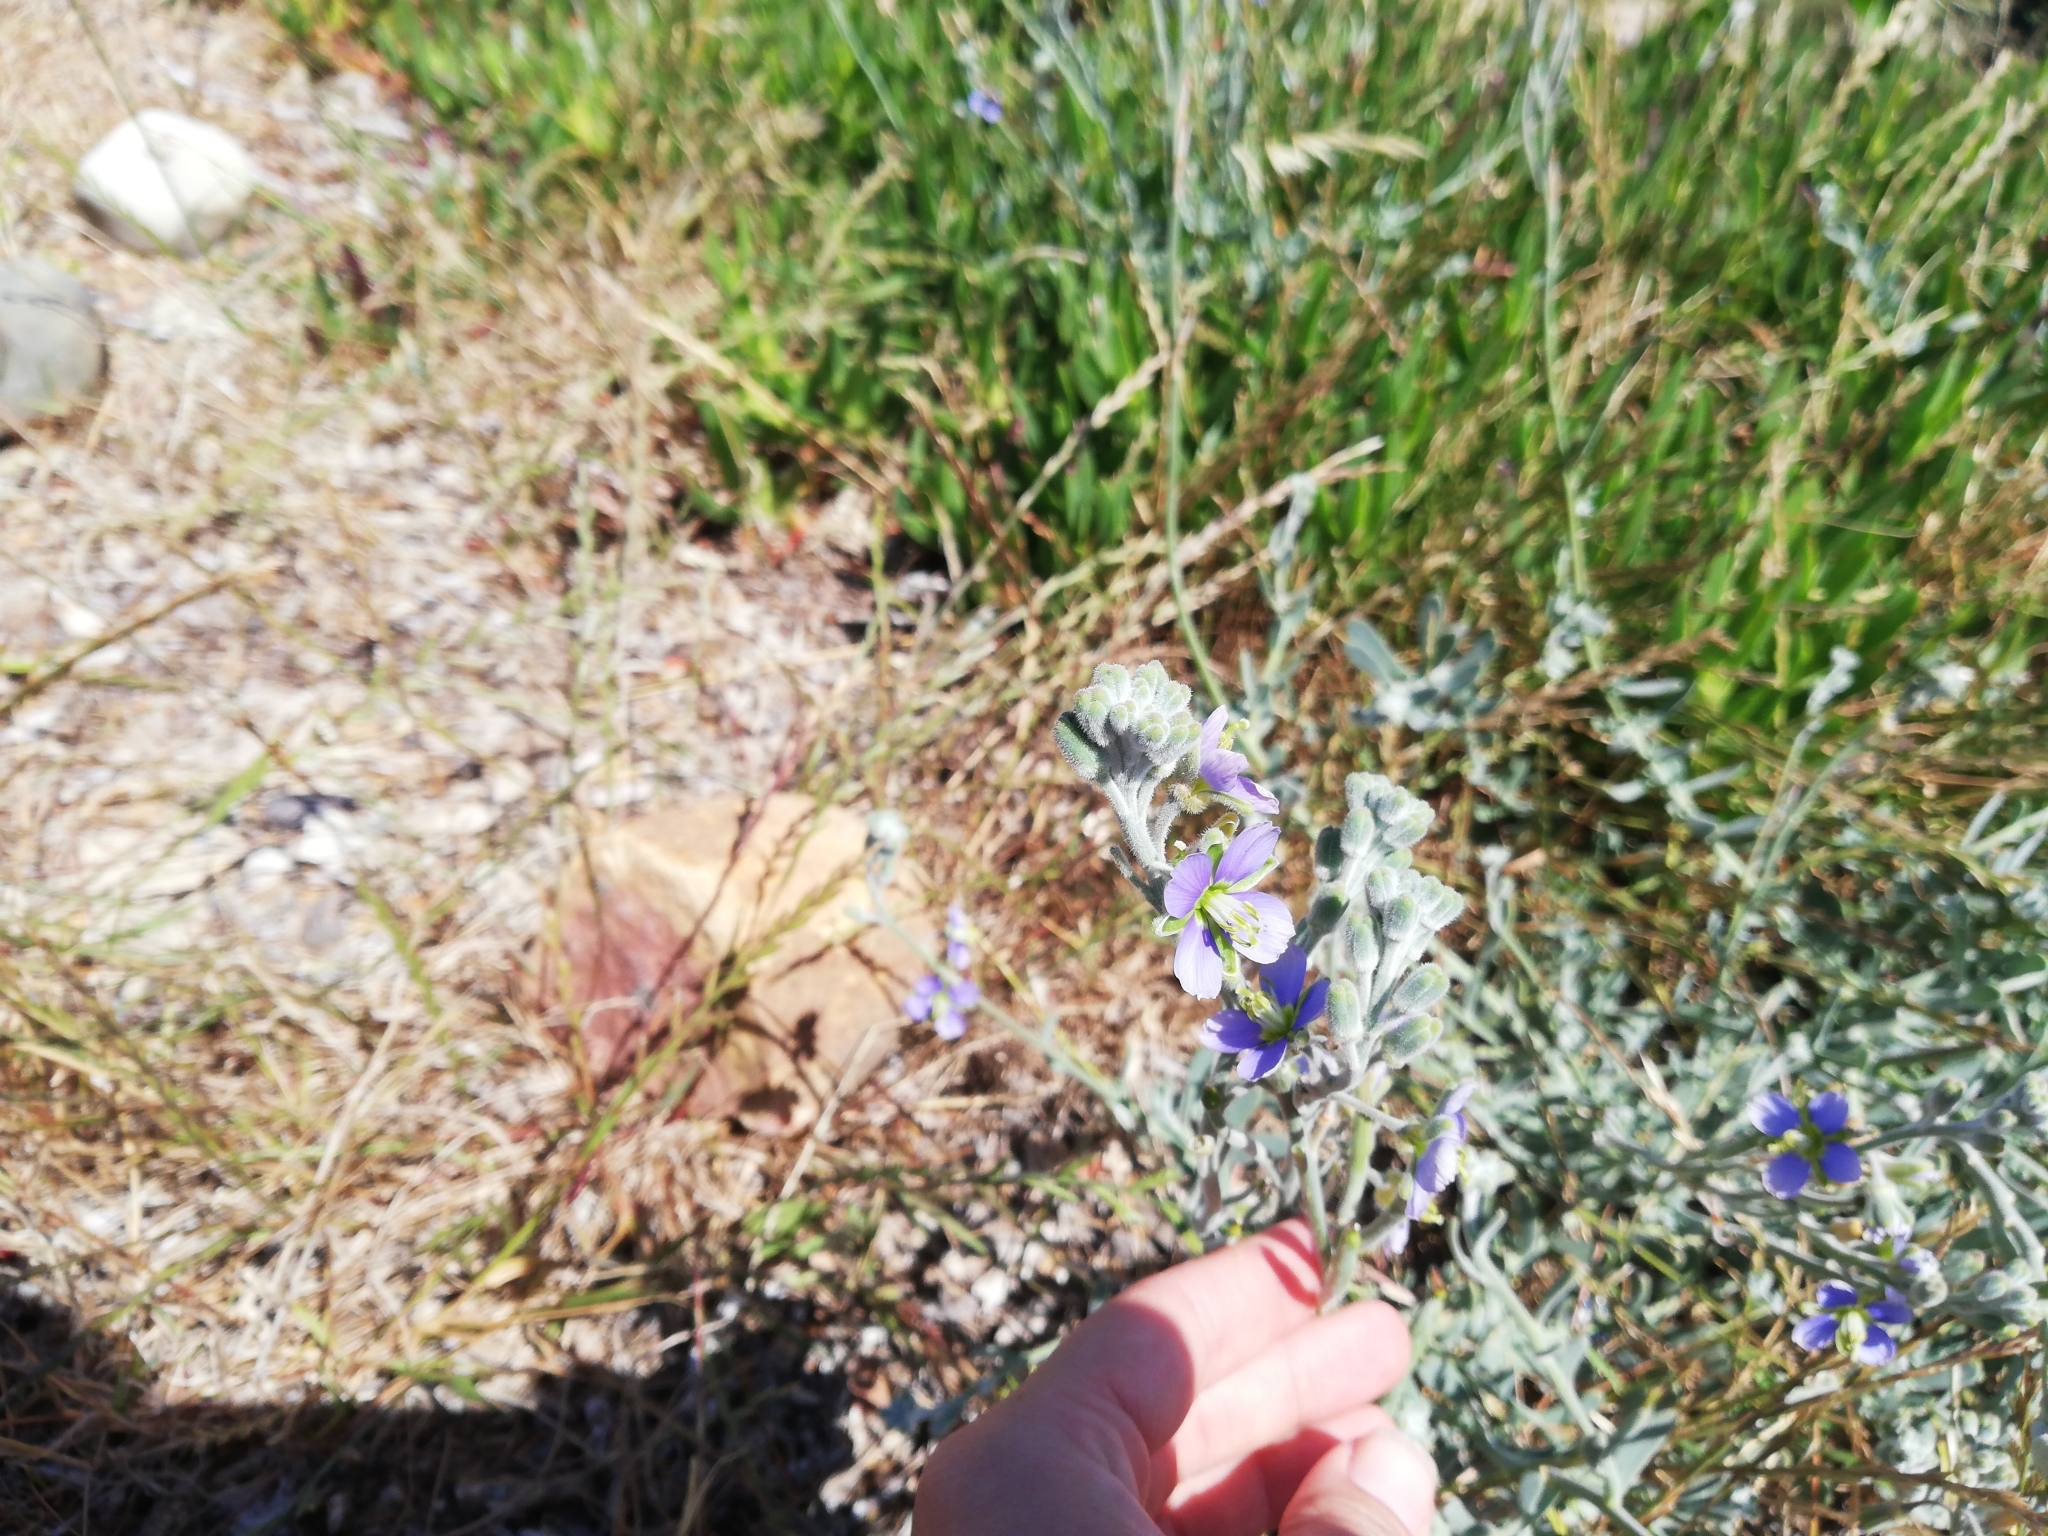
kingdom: Plantae
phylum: Tracheophyta
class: Magnoliopsida
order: Brassicales
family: Brassicaceae
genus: Heliophila
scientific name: Heliophila cinerea
